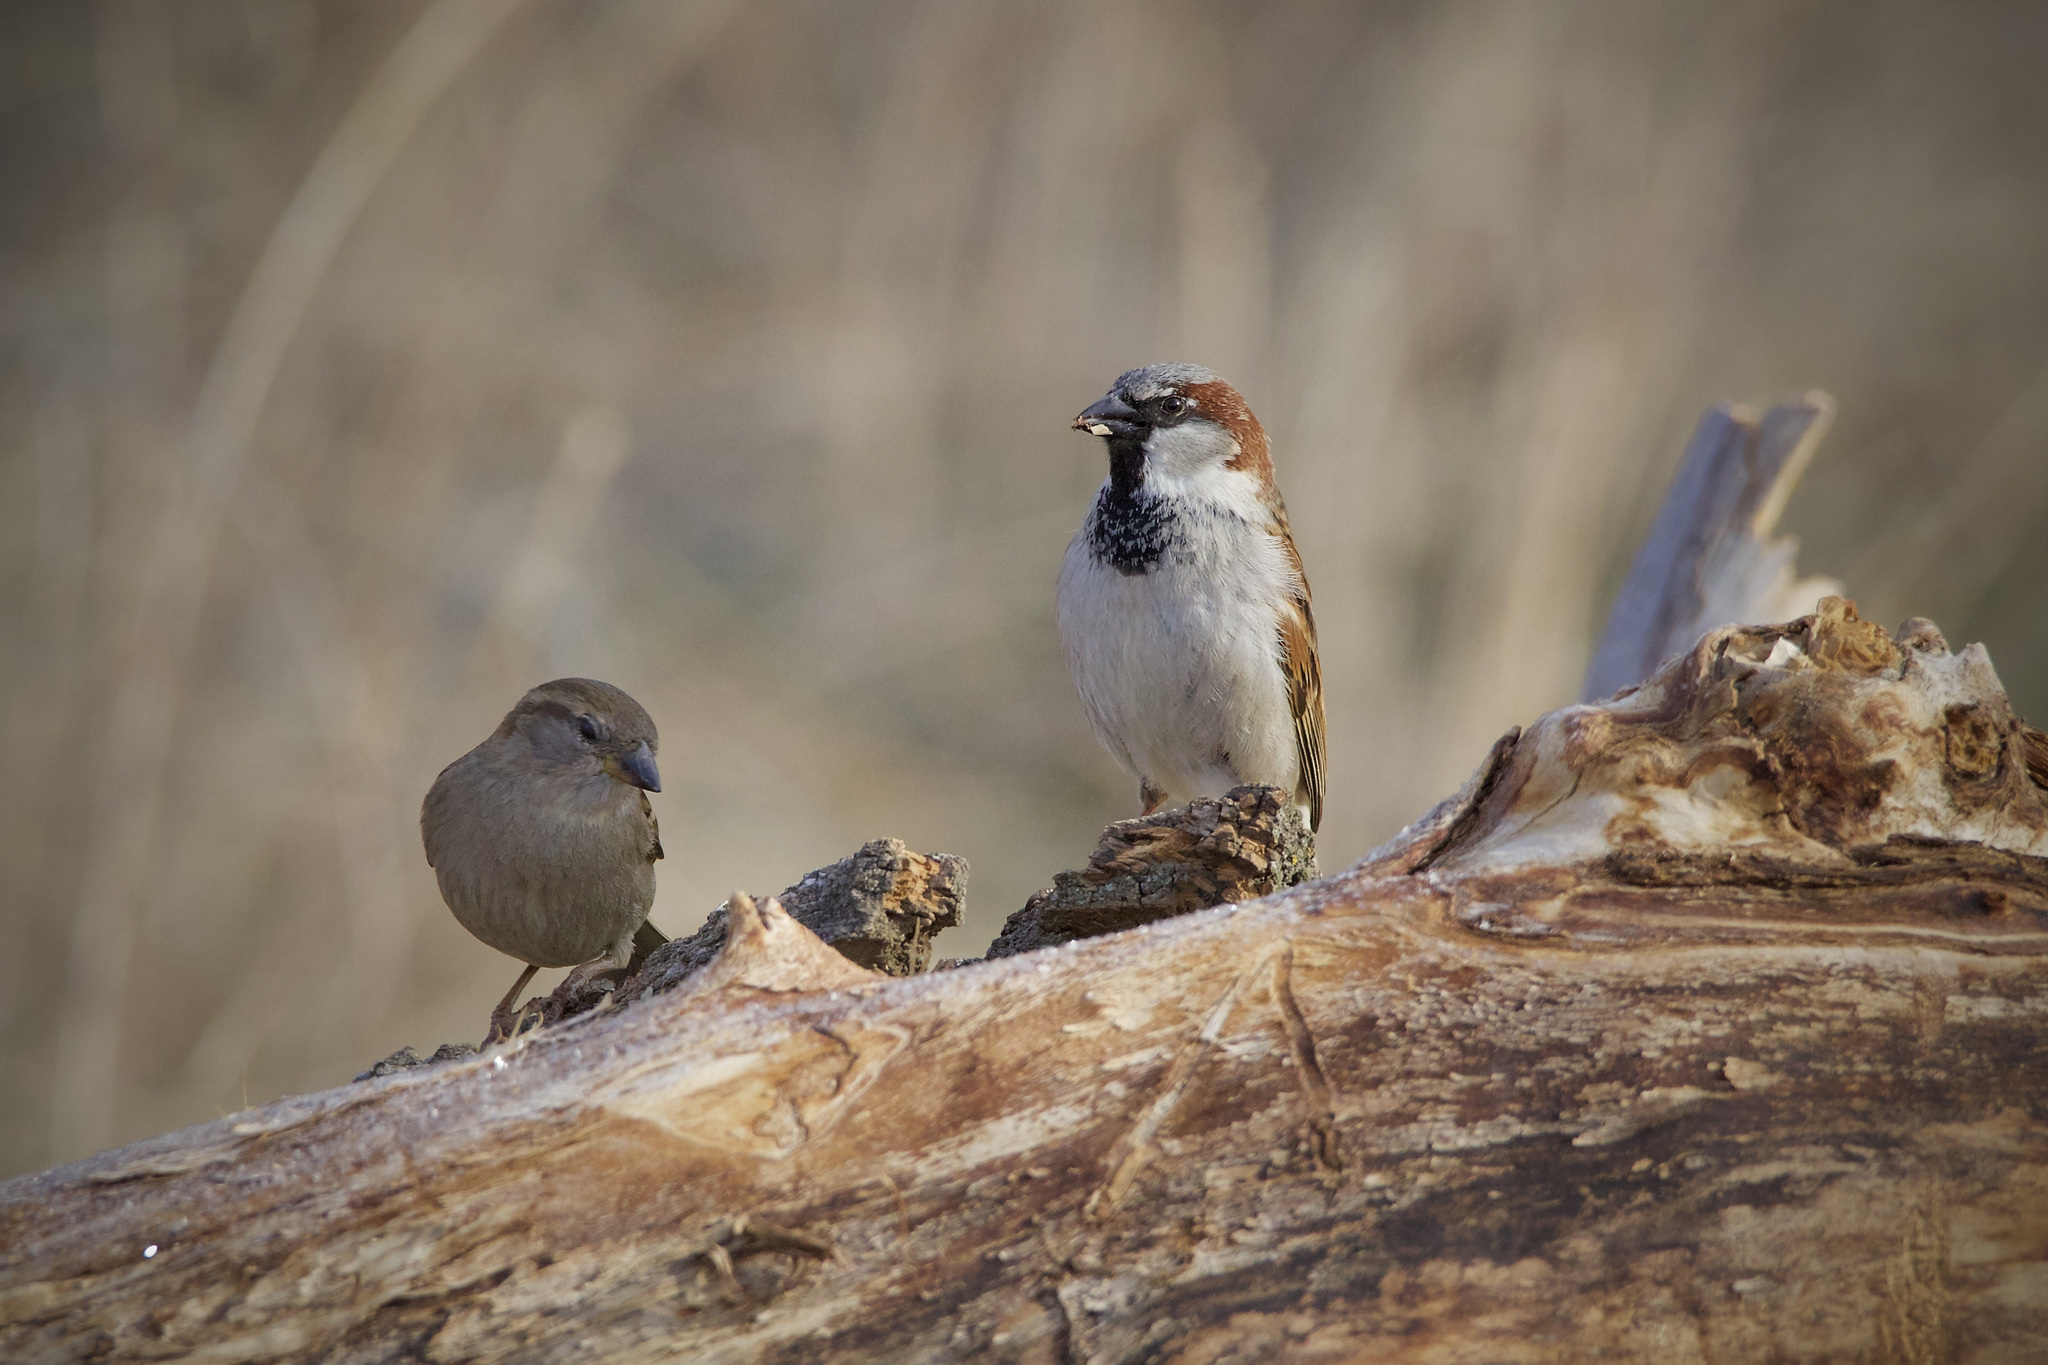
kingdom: Animalia
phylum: Chordata
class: Aves
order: Passeriformes
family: Passeridae
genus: Passer
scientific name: Passer domesticus
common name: House sparrow
